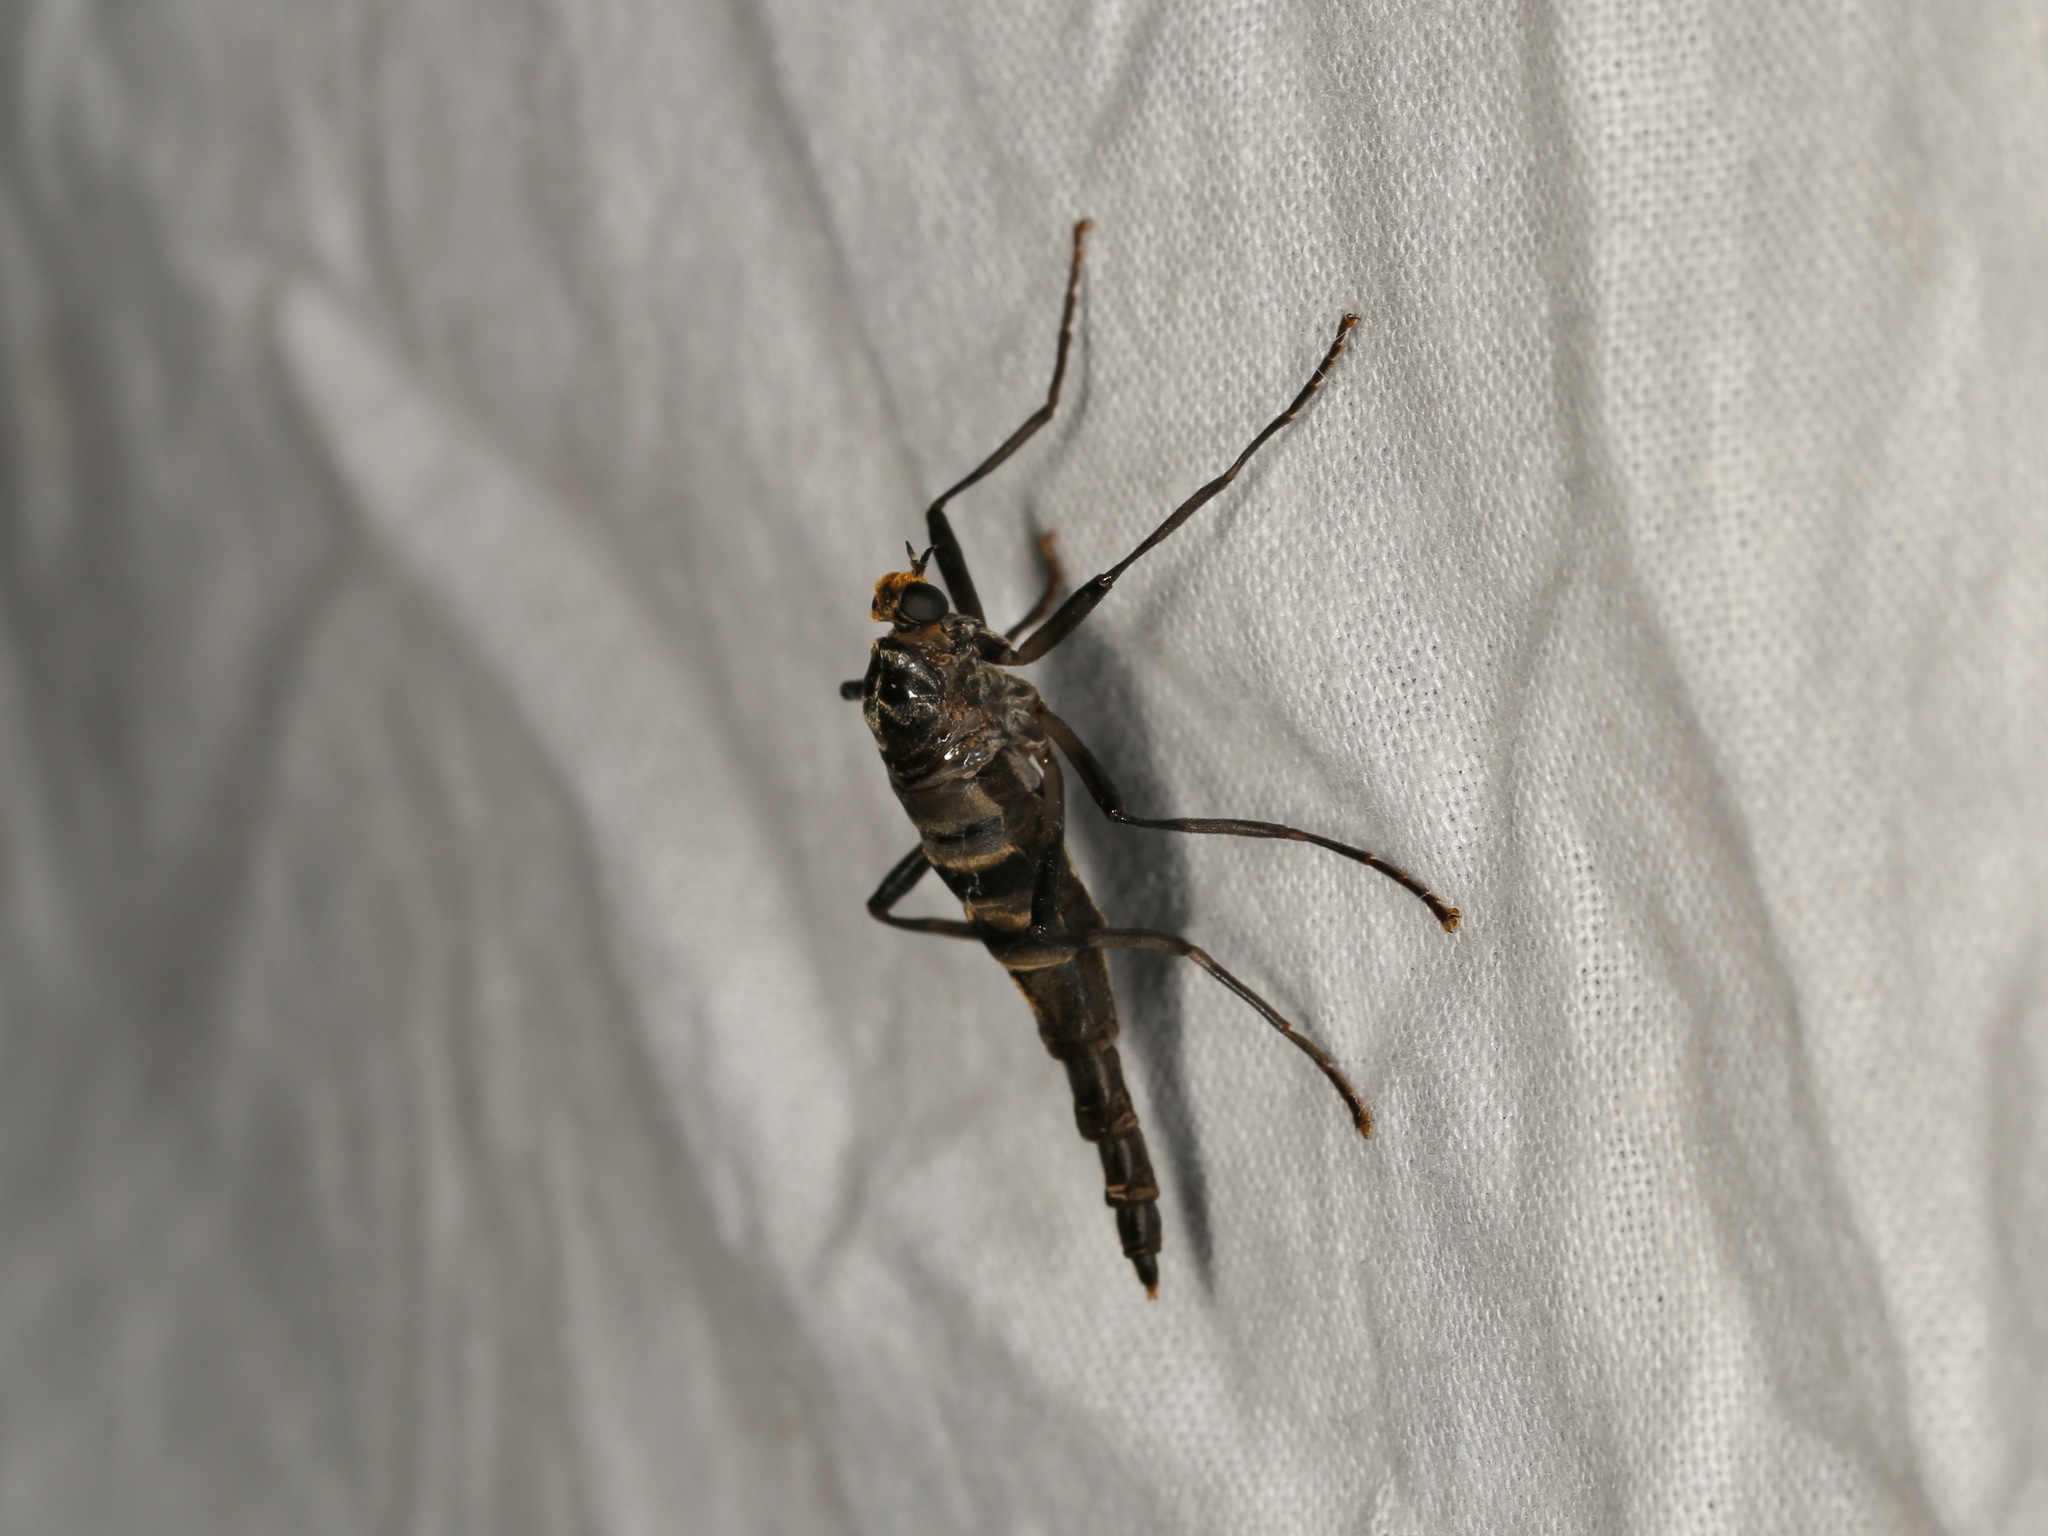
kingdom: Animalia
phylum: Arthropoda
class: Insecta
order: Diptera
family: Stratiomyidae
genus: Boreoides
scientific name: Boreoides subulatus
